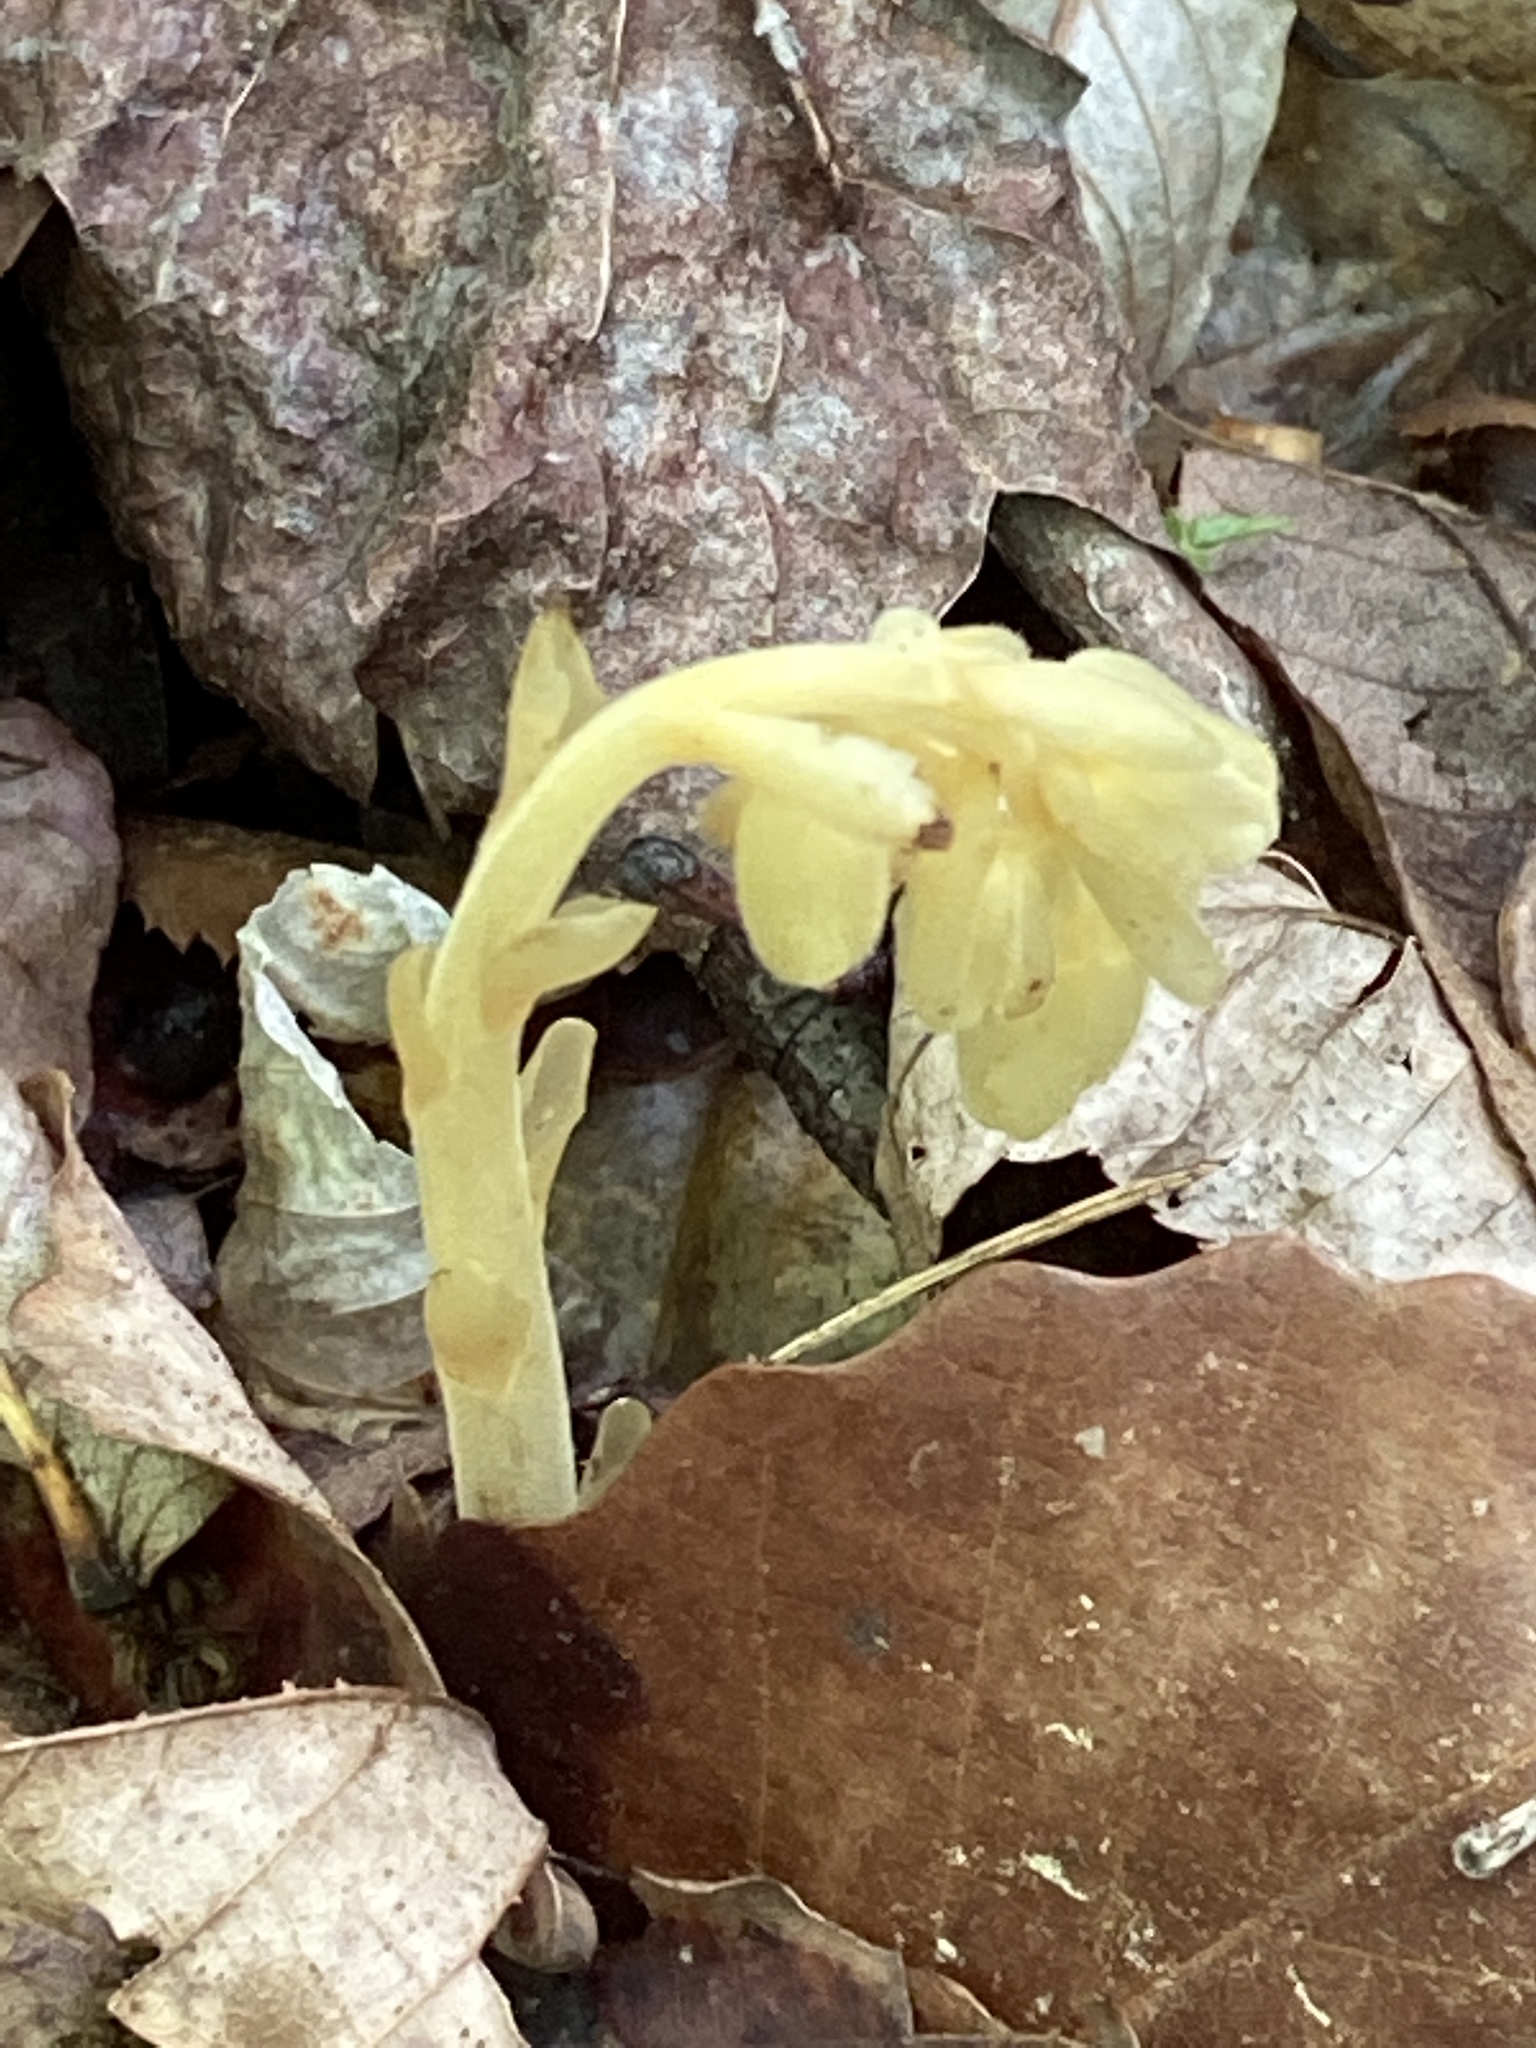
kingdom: Plantae
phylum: Tracheophyta
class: Magnoliopsida
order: Ericales
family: Ericaceae
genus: Hypopitys
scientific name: Hypopitys monotropa
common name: Yellow bird's-nest
